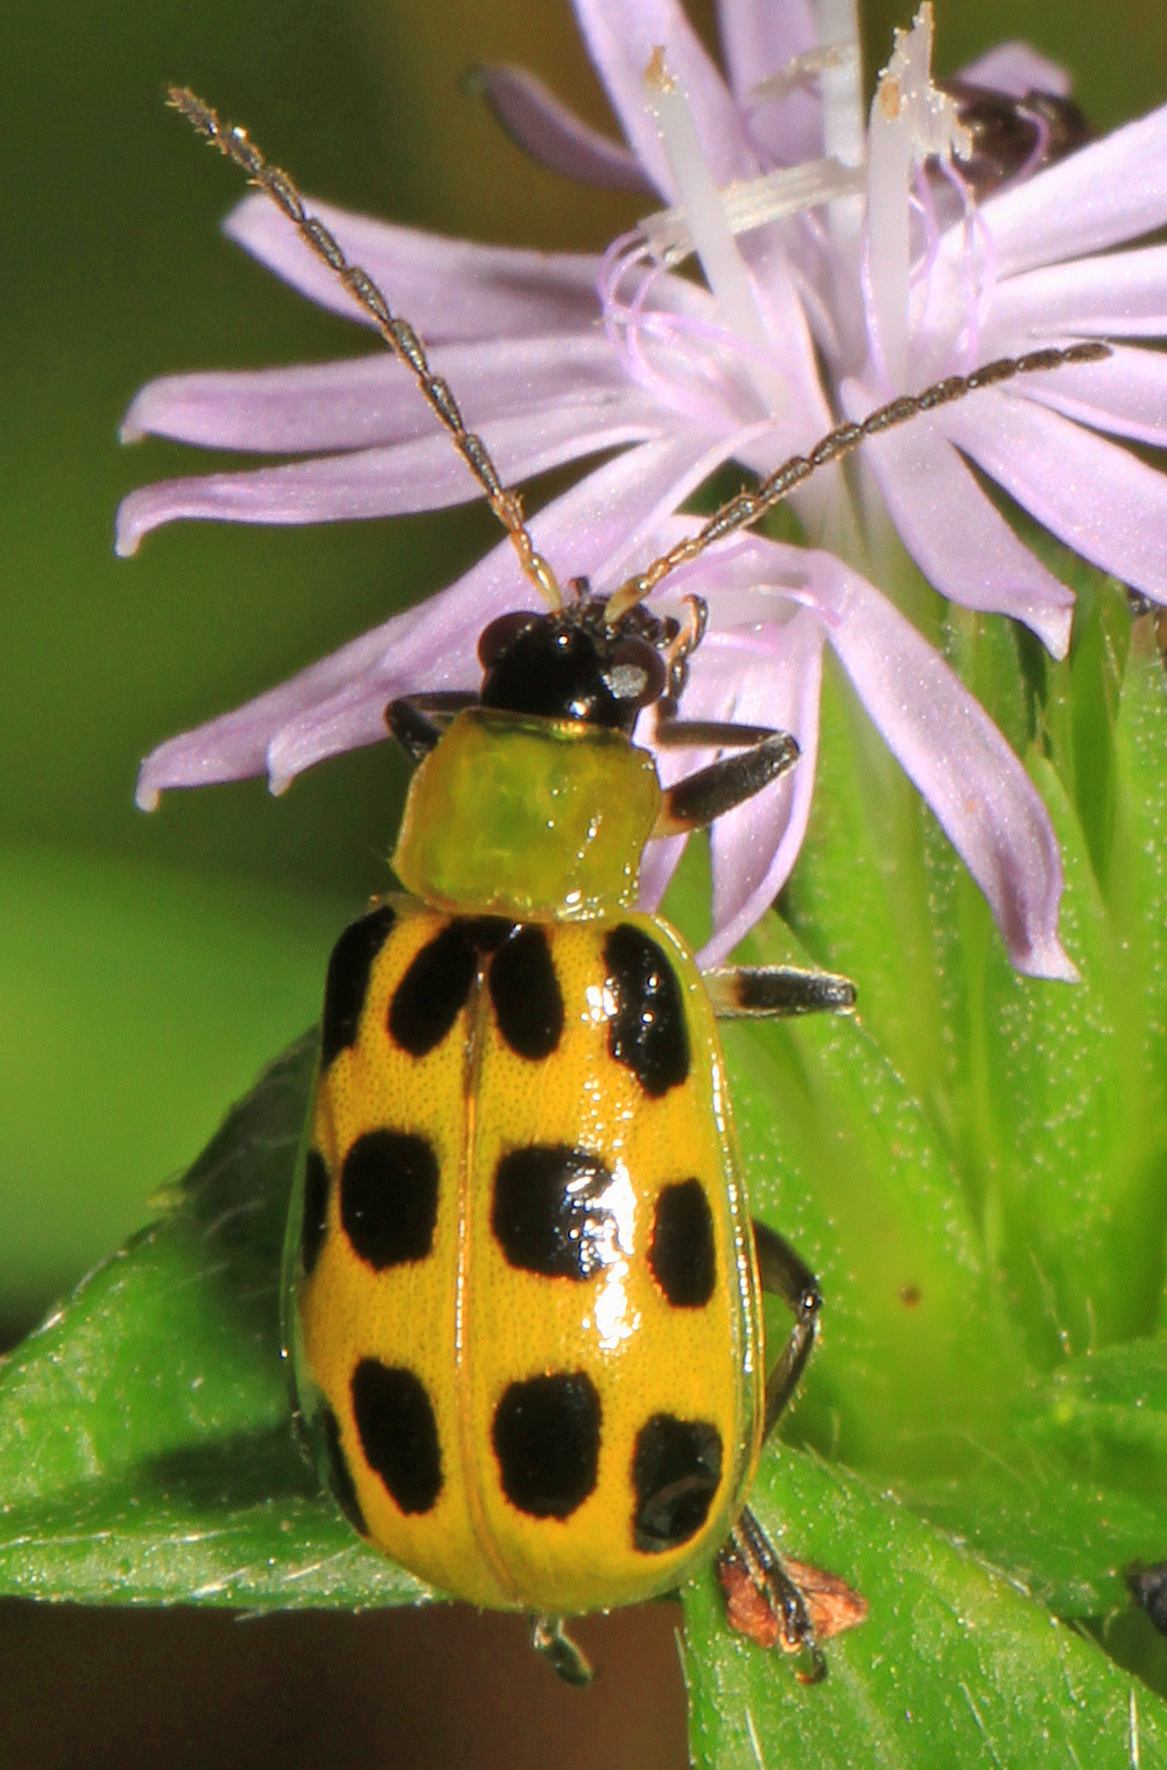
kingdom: Animalia
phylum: Arthropoda
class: Insecta
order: Coleoptera
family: Chrysomelidae
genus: Diabrotica
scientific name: Diabrotica undecimpunctata
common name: Spotted cucumber beetle
